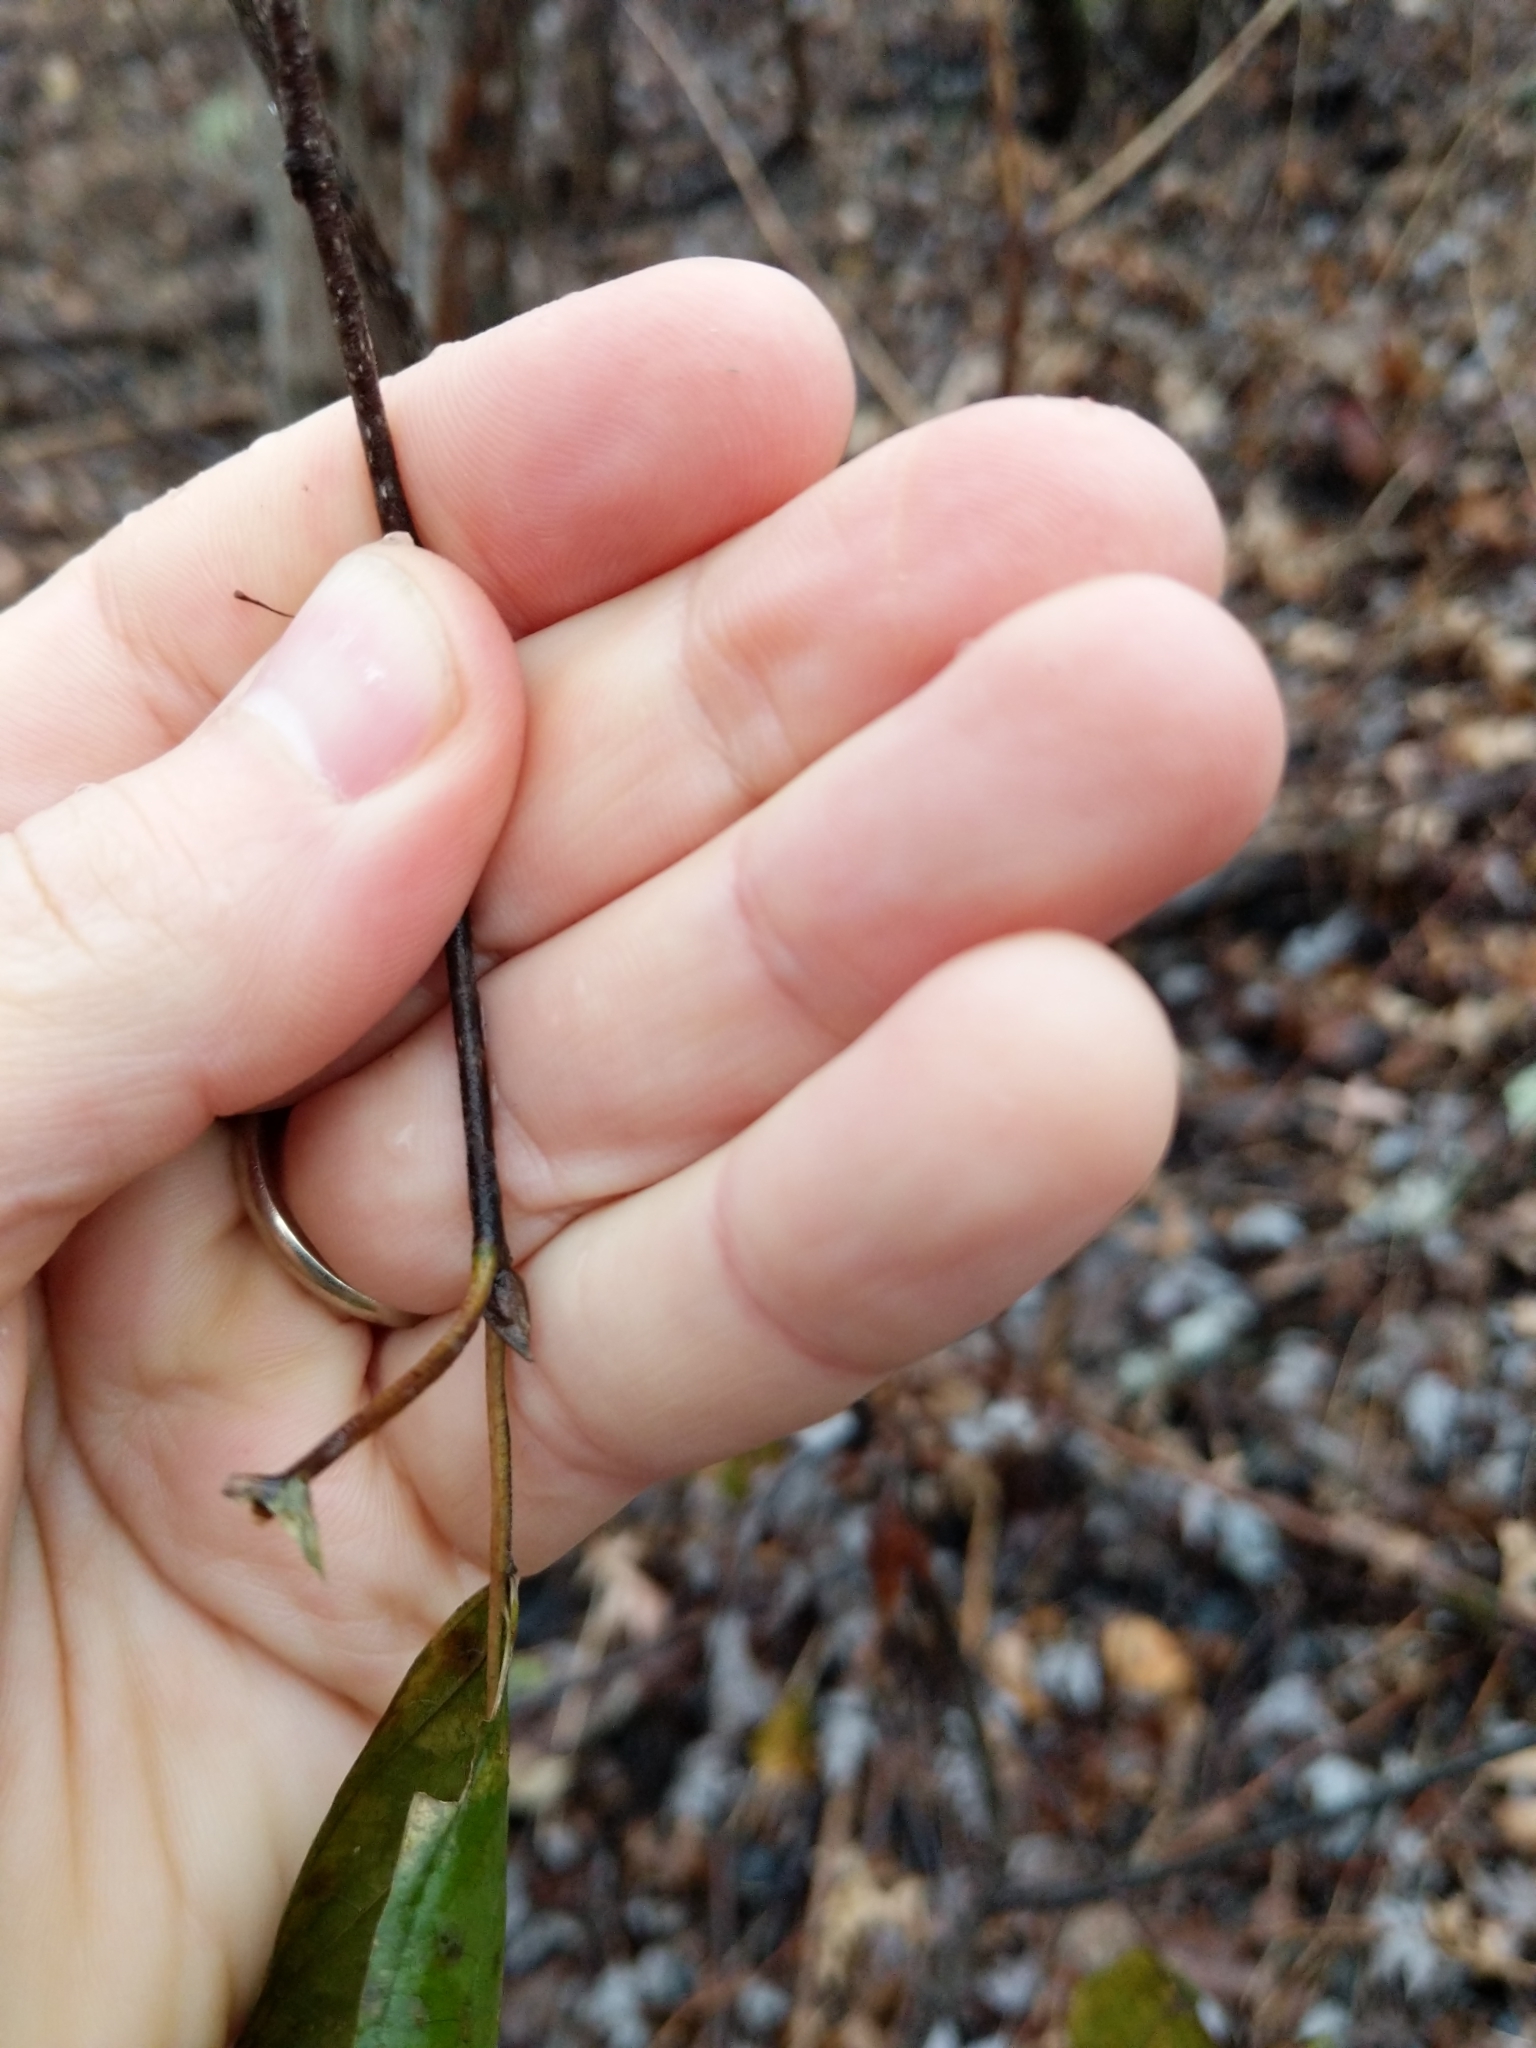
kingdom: Plantae
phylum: Tracheophyta
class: Magnoliopsida
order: Rosales
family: Rhamnaceae
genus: Frangula
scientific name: Frangula alnus
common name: Alder buckthorn
